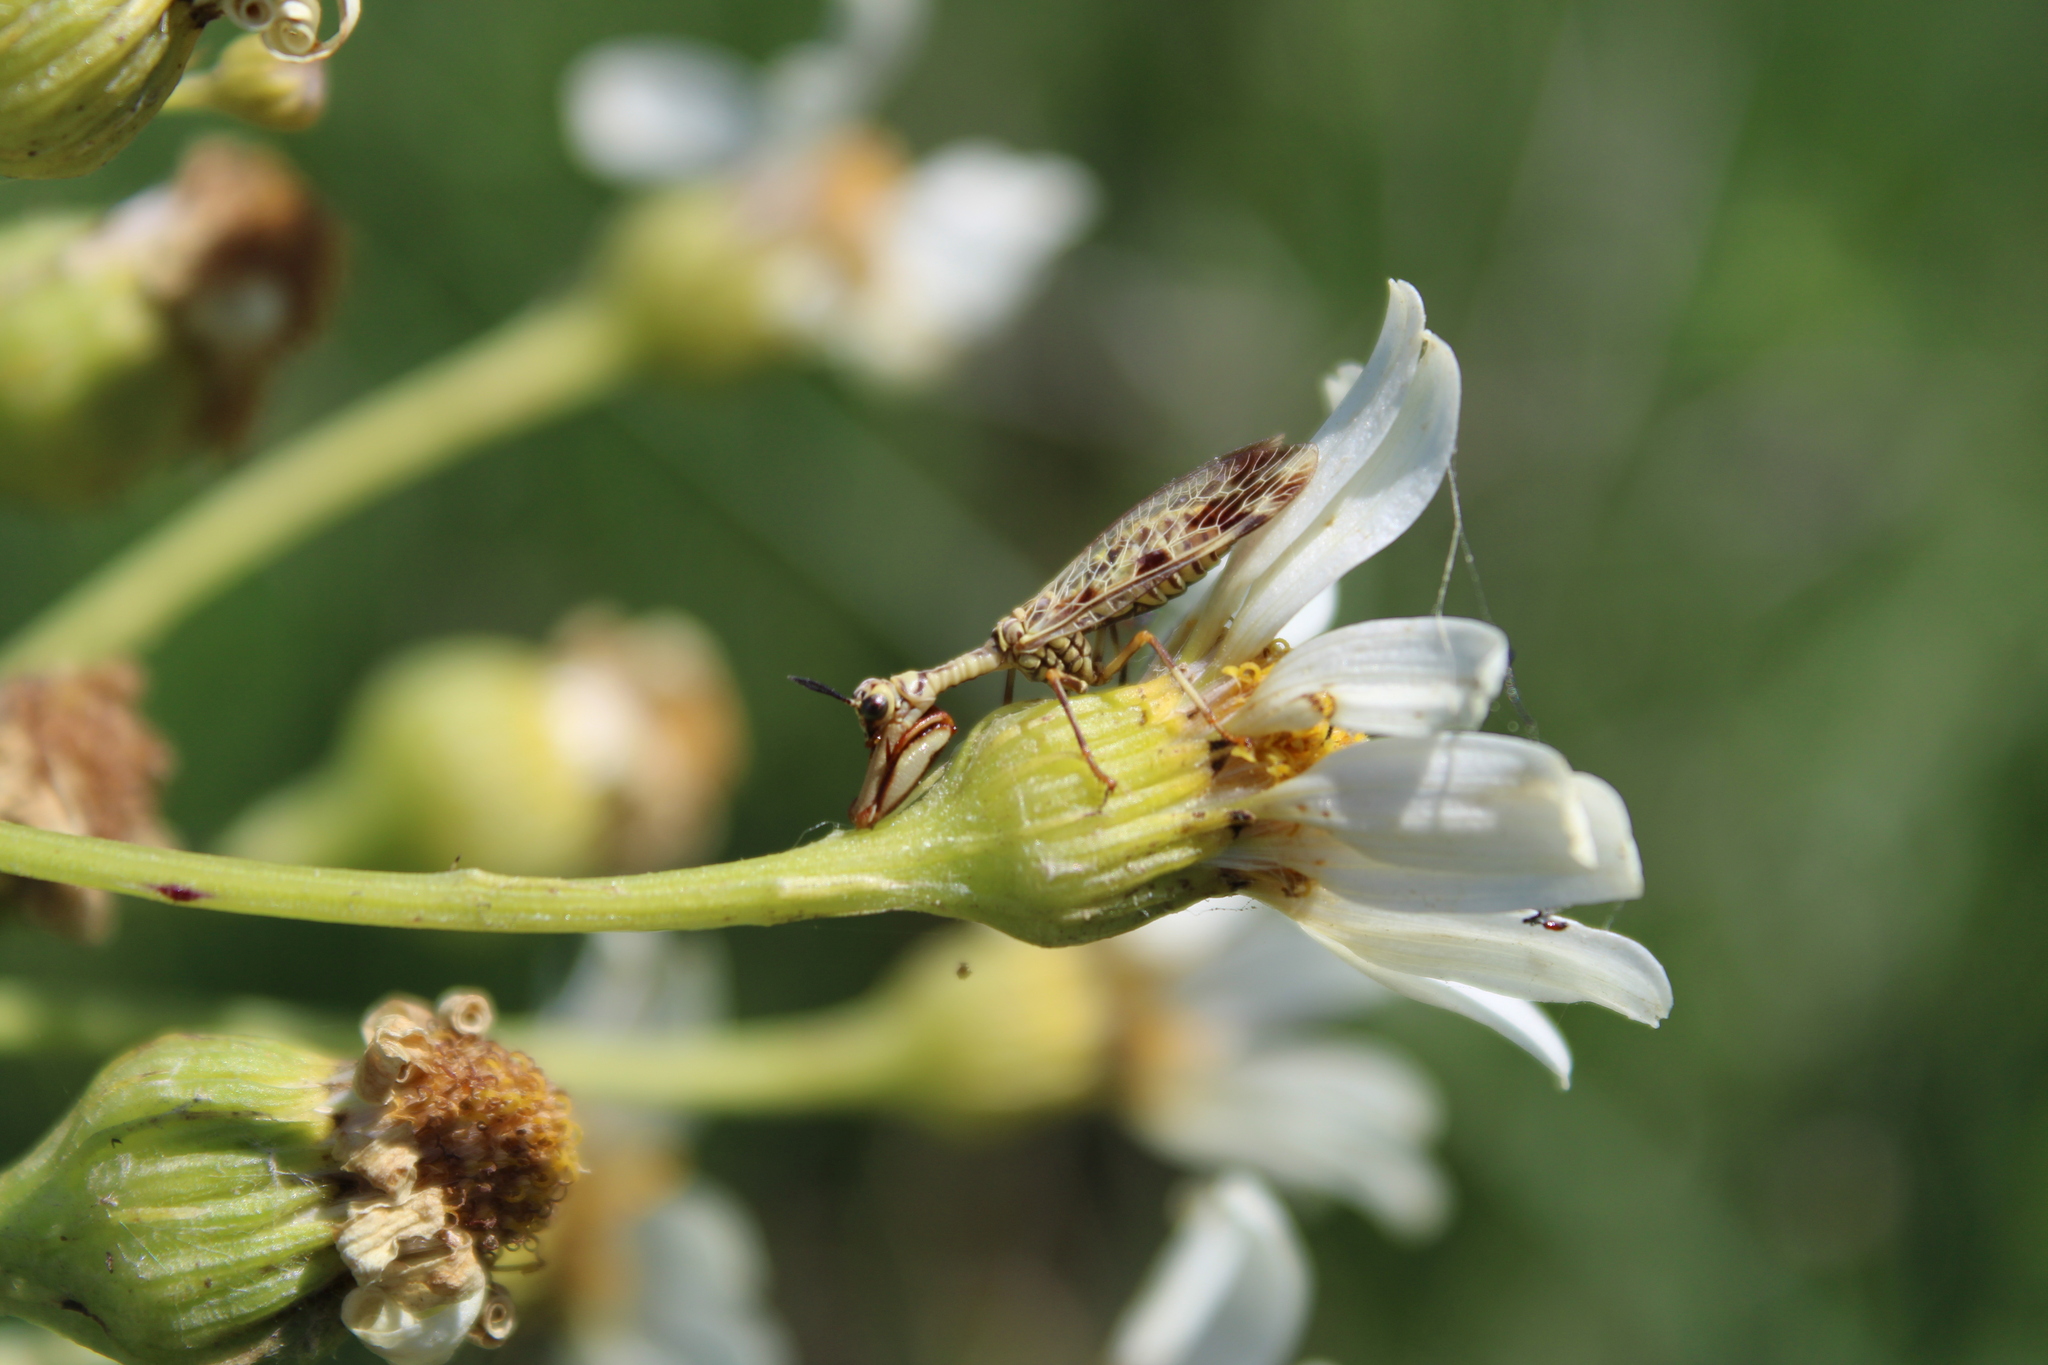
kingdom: Animalia
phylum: Arthropoda
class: Insecta
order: Neuroptera
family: Mantispidae
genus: Paramantispa
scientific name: Paramantispa ambusta
